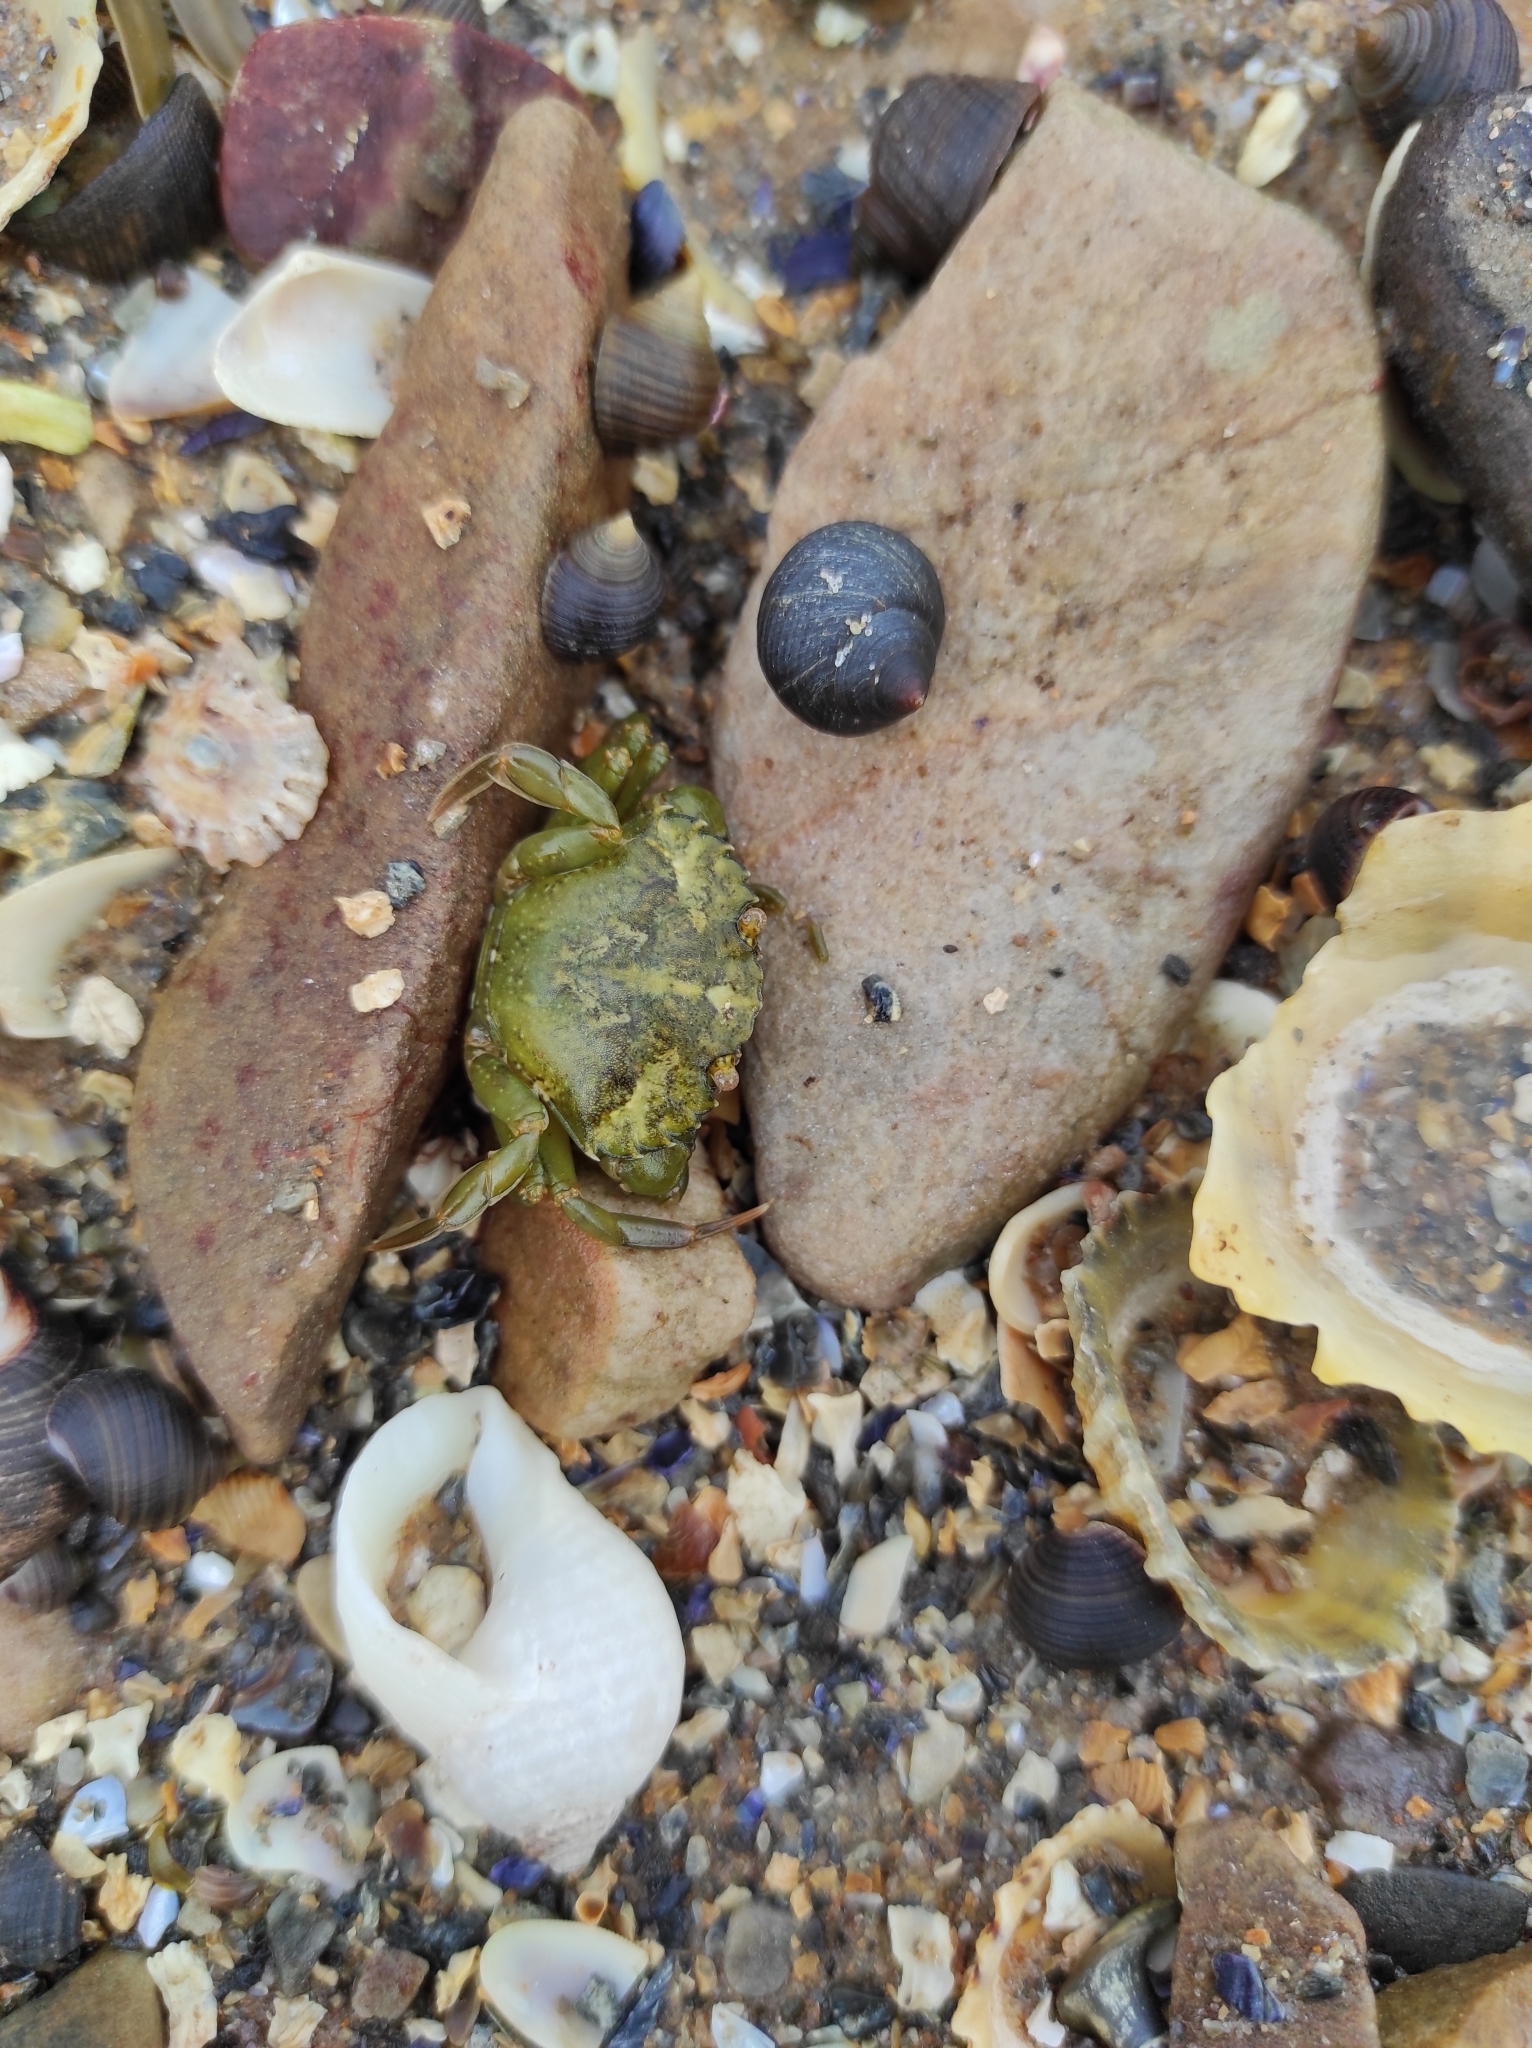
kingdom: Animalia
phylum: Arthropoda
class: Malacostraca
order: Decapoda
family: Carcinidae
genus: Carcinus
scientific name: Carcinus maenas
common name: European green crab
